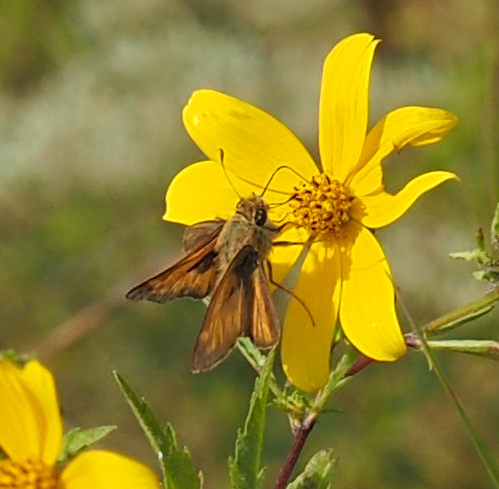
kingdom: Animalia
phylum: Arthropoda
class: Insecta
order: Lepidoptera
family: Hesperiidae
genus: Atalopedes
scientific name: Atalopedes
